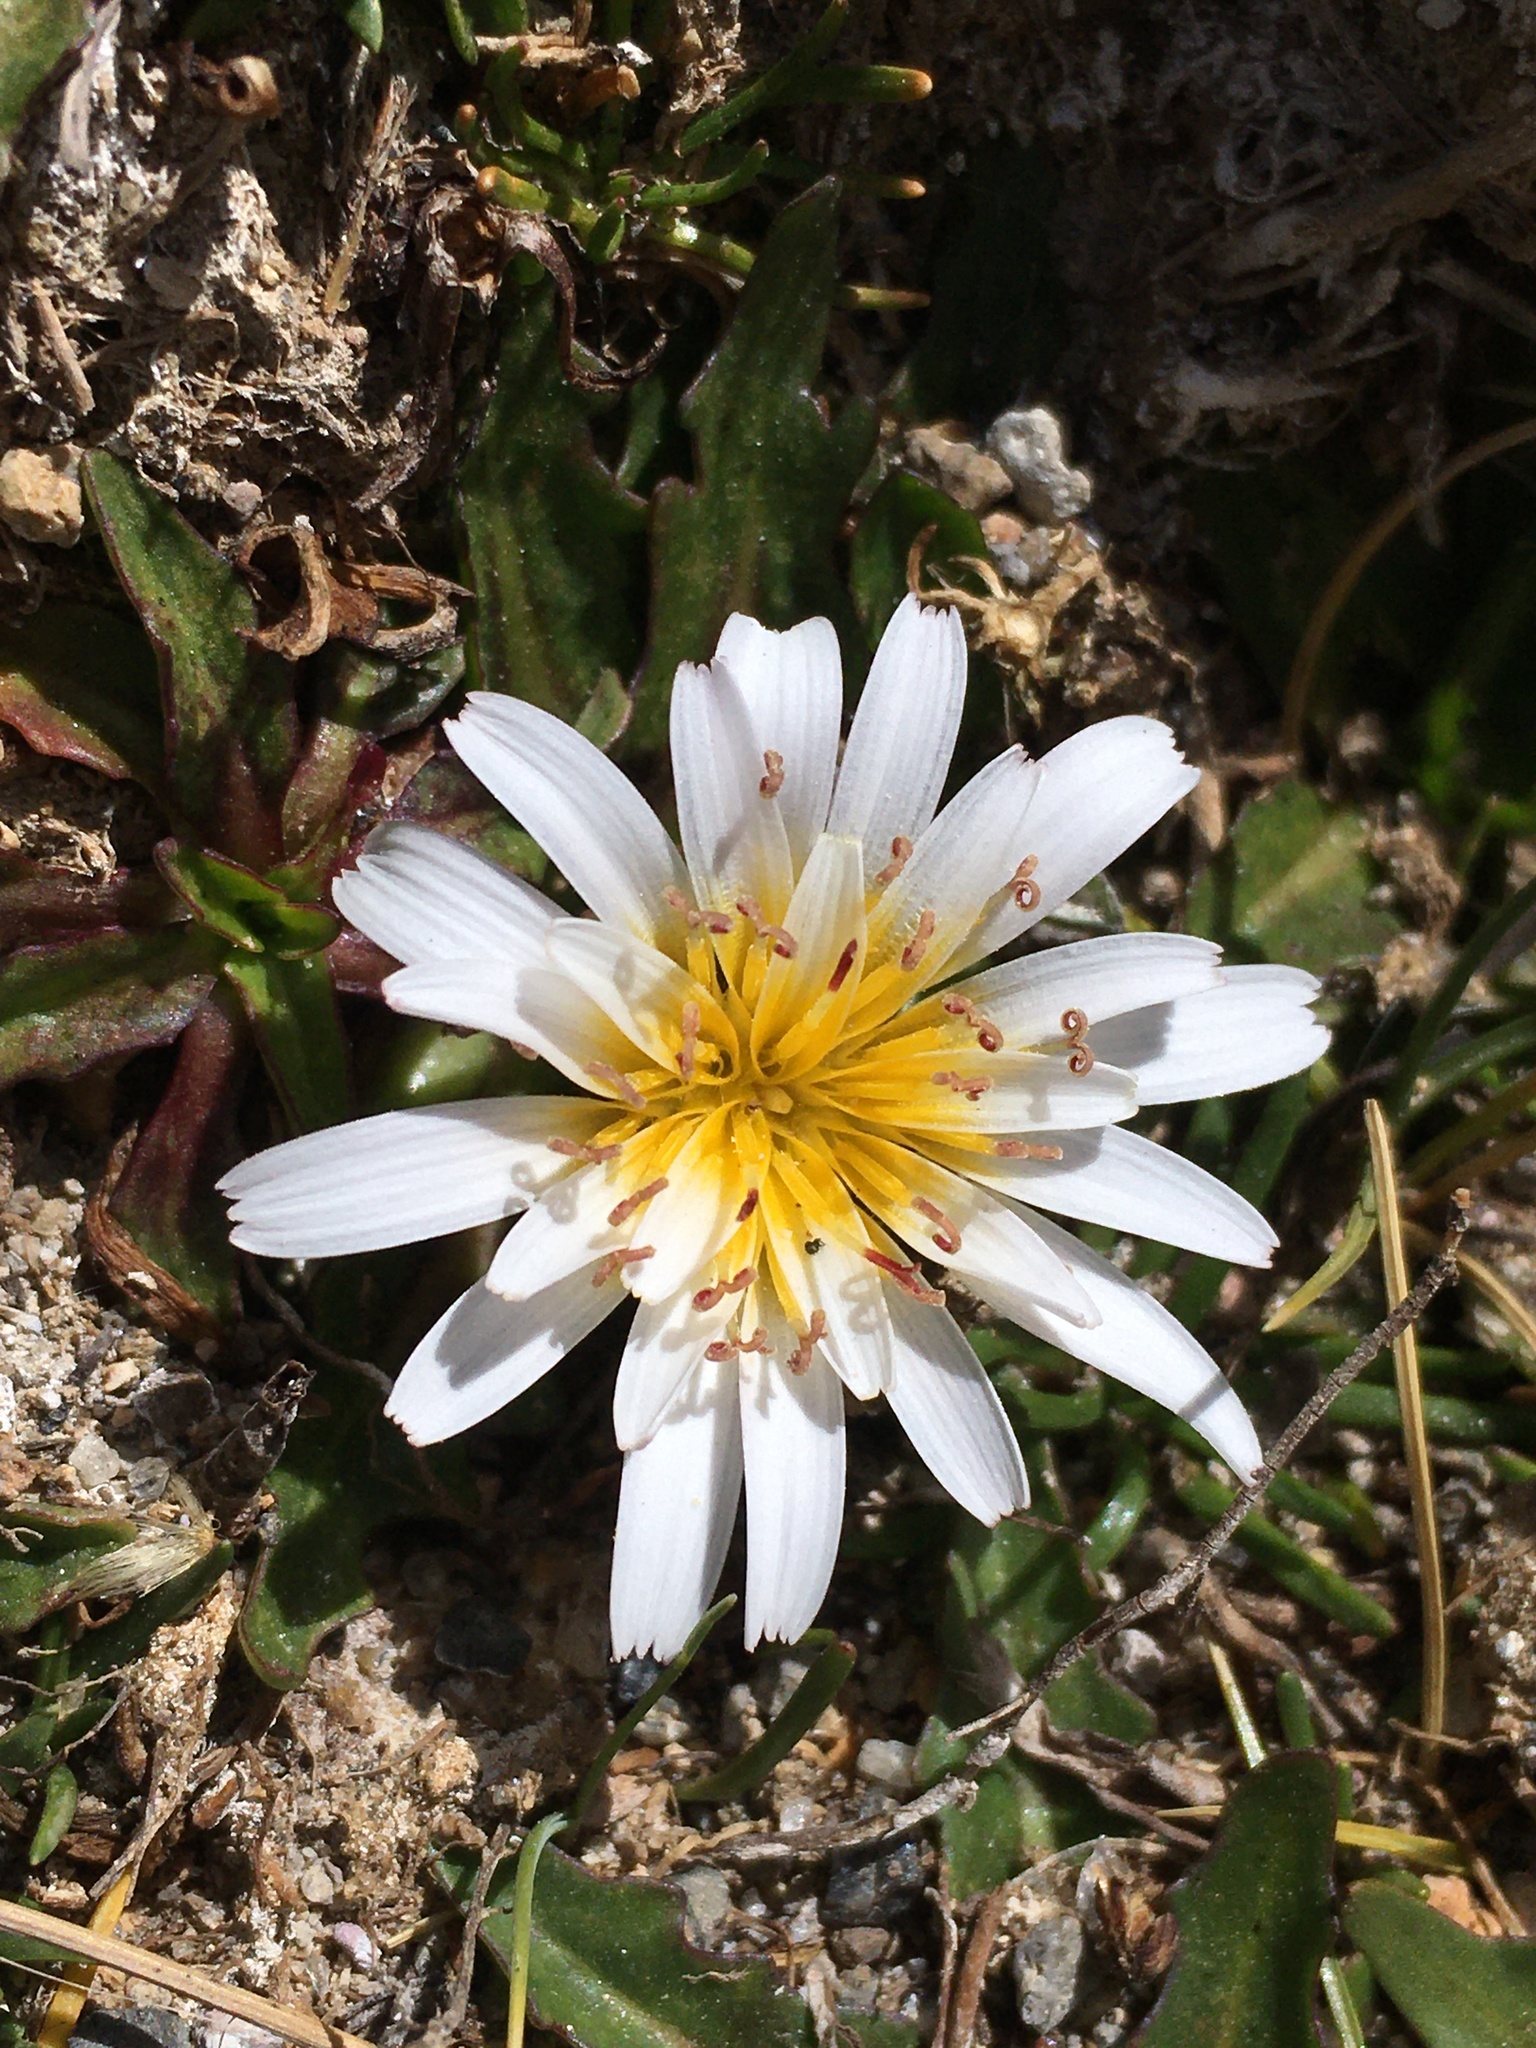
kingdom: Plantae
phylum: Tracheophyta
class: Magnoliopsida
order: Asterales
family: Asteraceae
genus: Hypochaeris
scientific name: Hypochaeris taraxacoides
